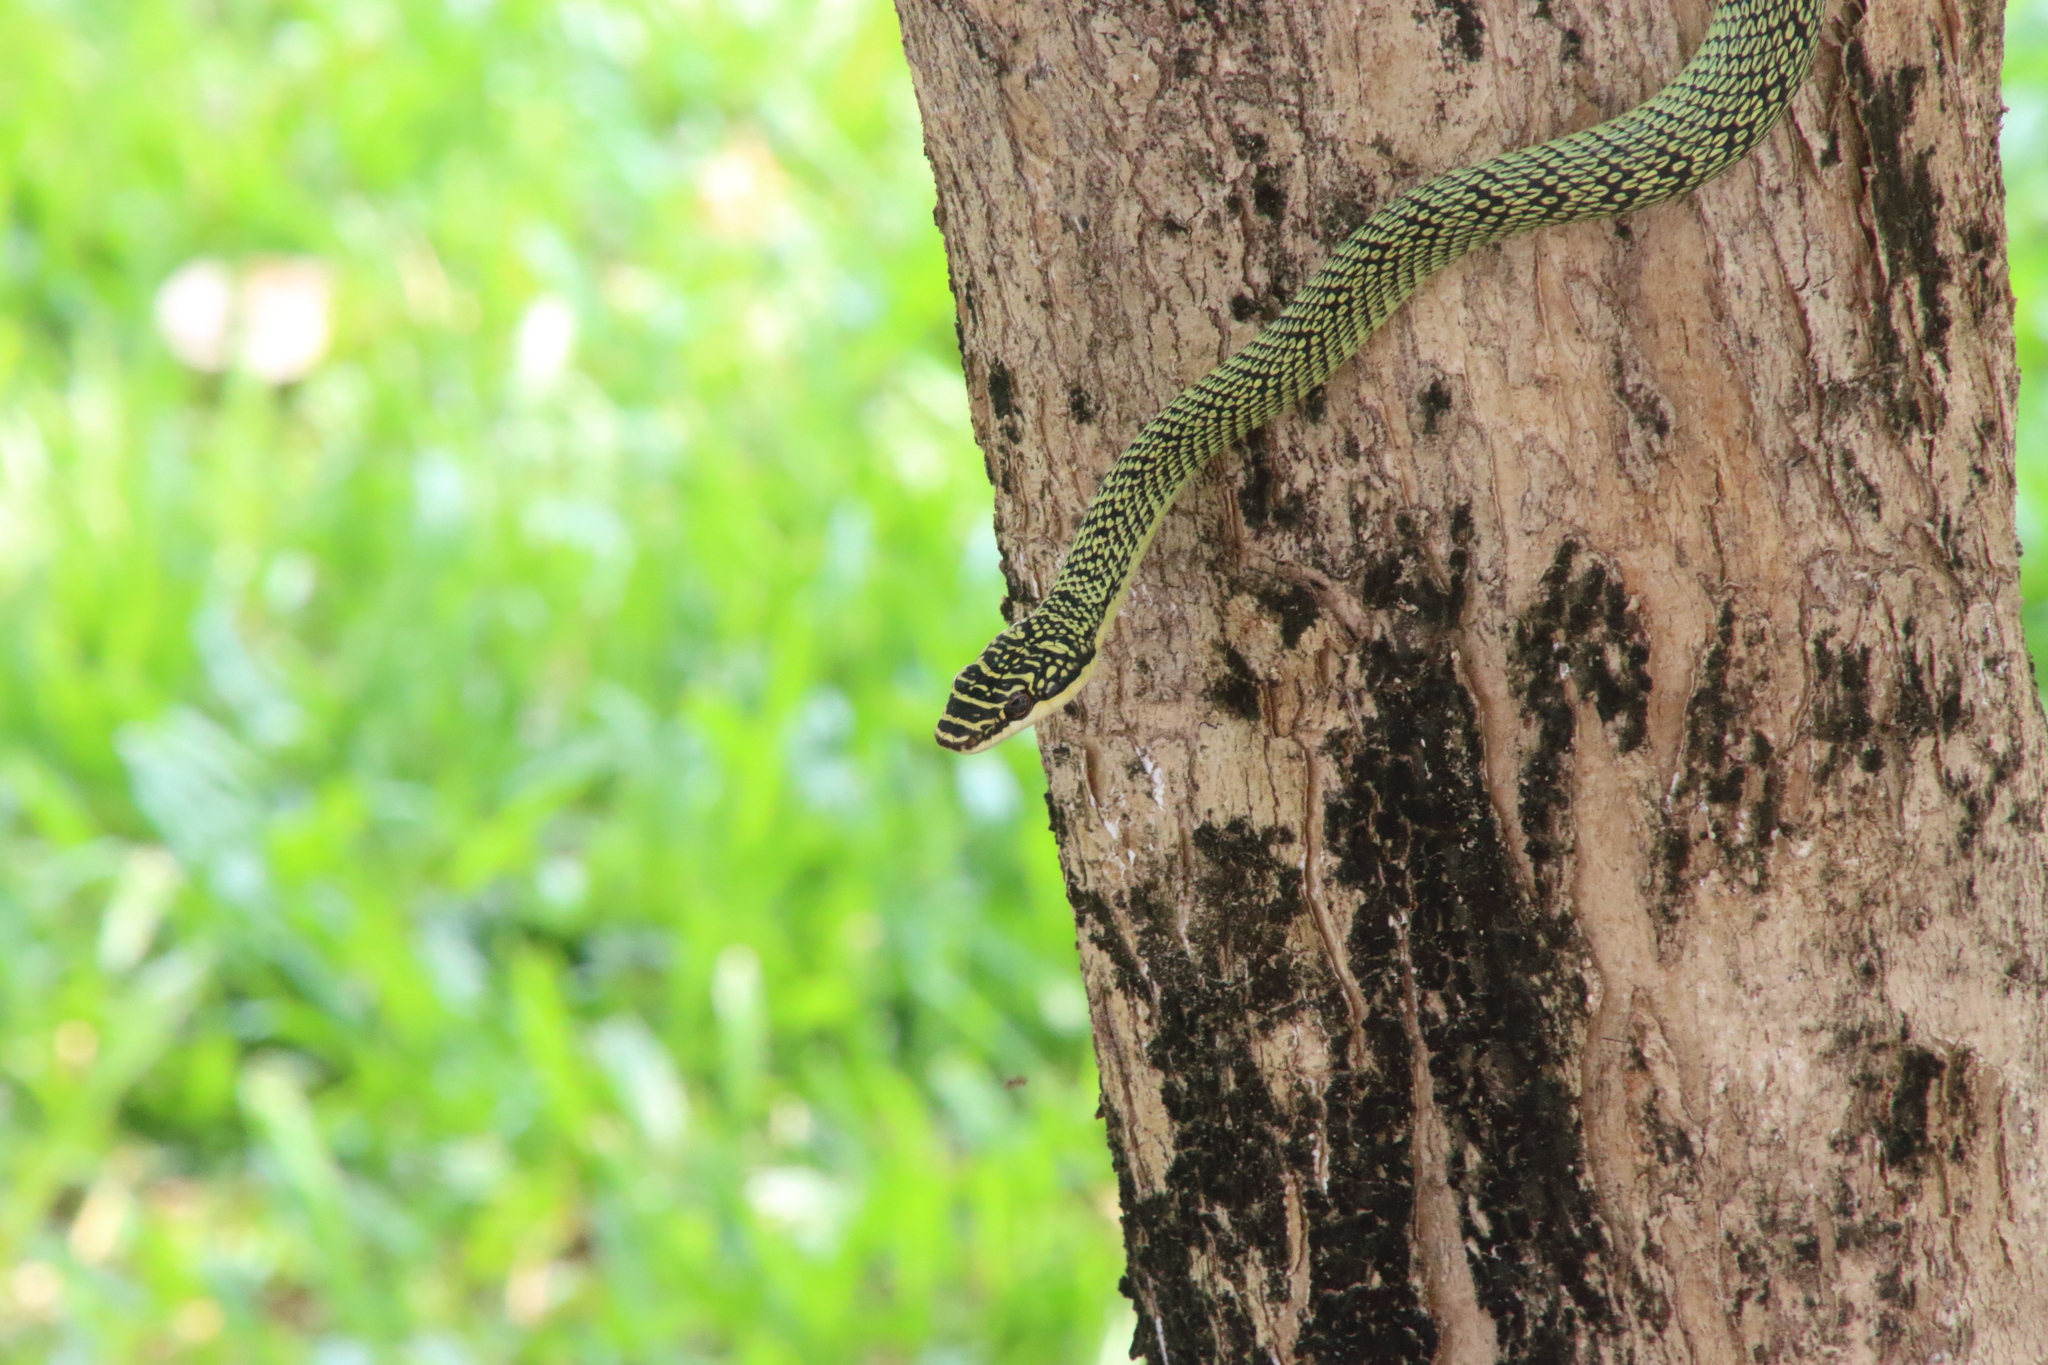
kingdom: Animalia
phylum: Chordata
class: Squamata
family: Colubridae
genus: Chrysopelea
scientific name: Chrysopelea ornata
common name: Golden flying snake
